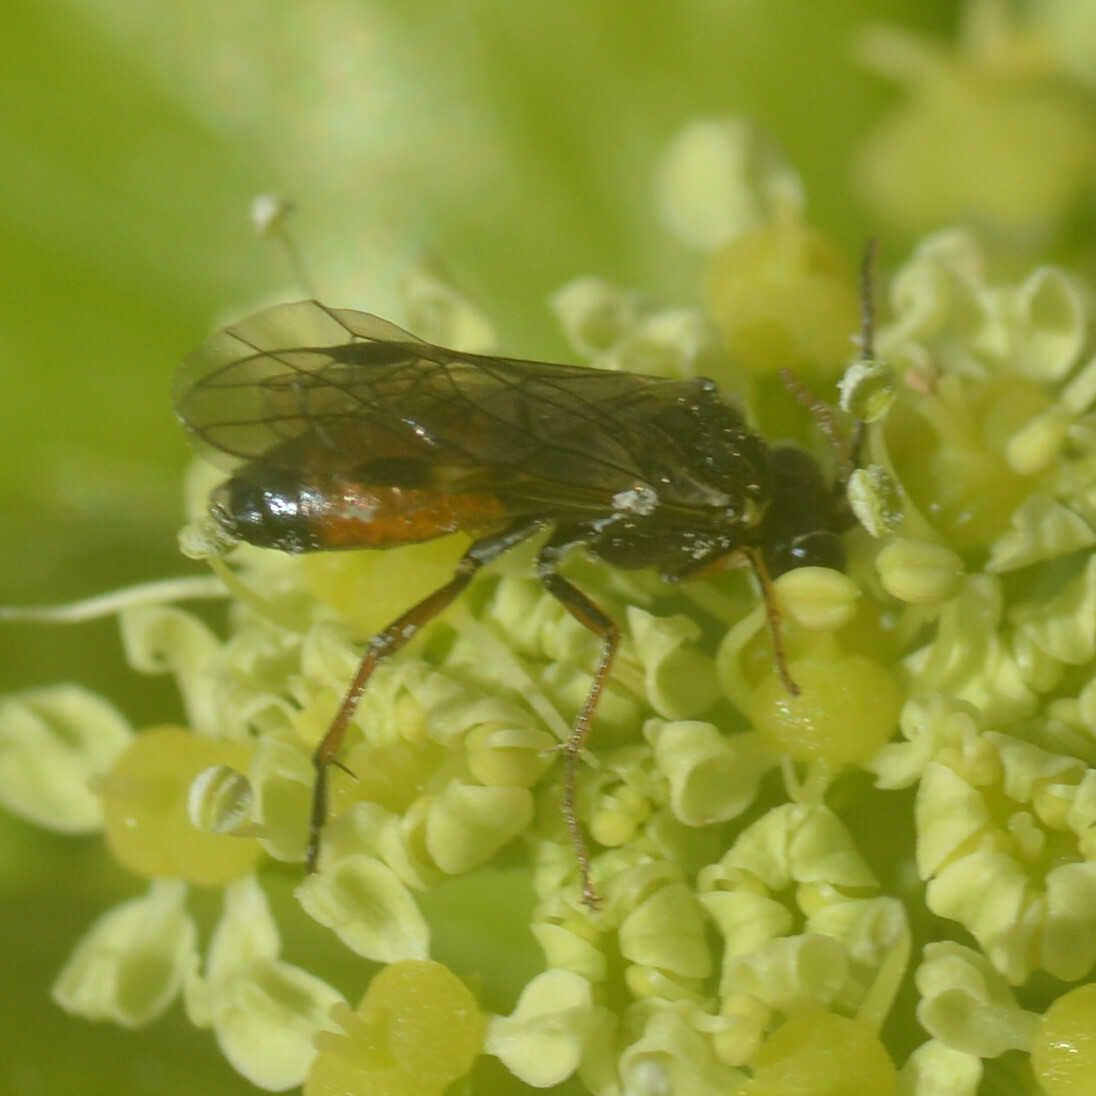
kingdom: Animalia
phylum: Arthropoda
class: Insecta
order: Hymenoptera
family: Tenthredinidae
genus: Aglaostigma
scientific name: Aglaostigma aucupariae
